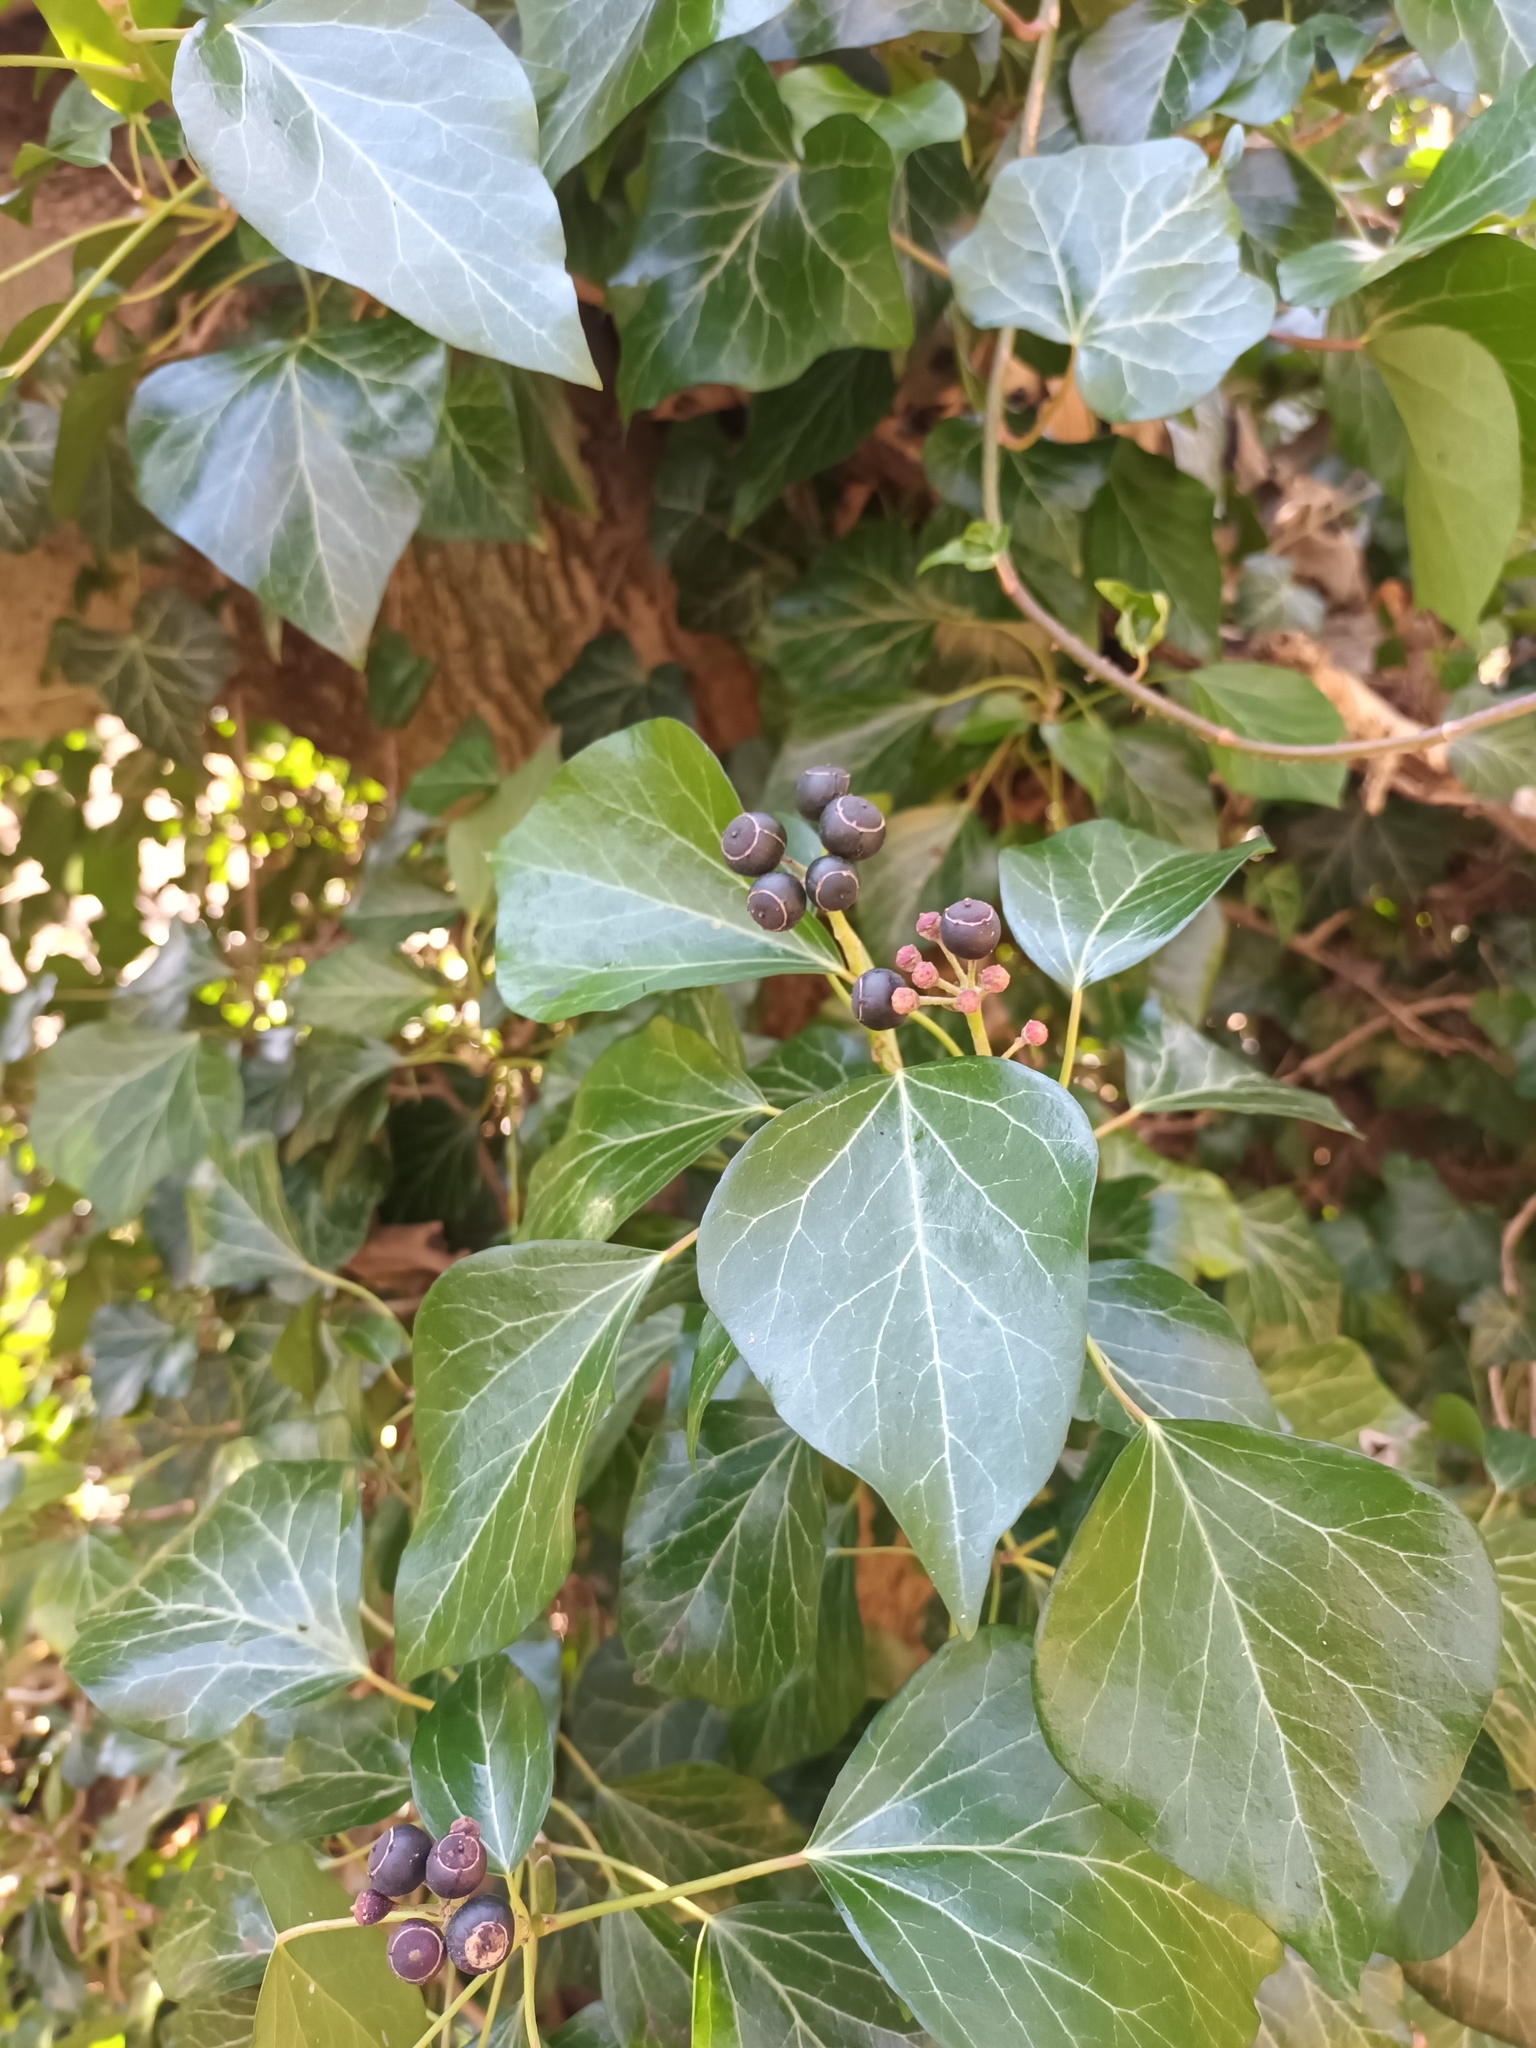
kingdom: Plantae
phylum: Tracheophyta
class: Magnoliopsida
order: Apiales
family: Araliaceae
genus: Hedera
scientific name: Hedera helix
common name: Ivy
